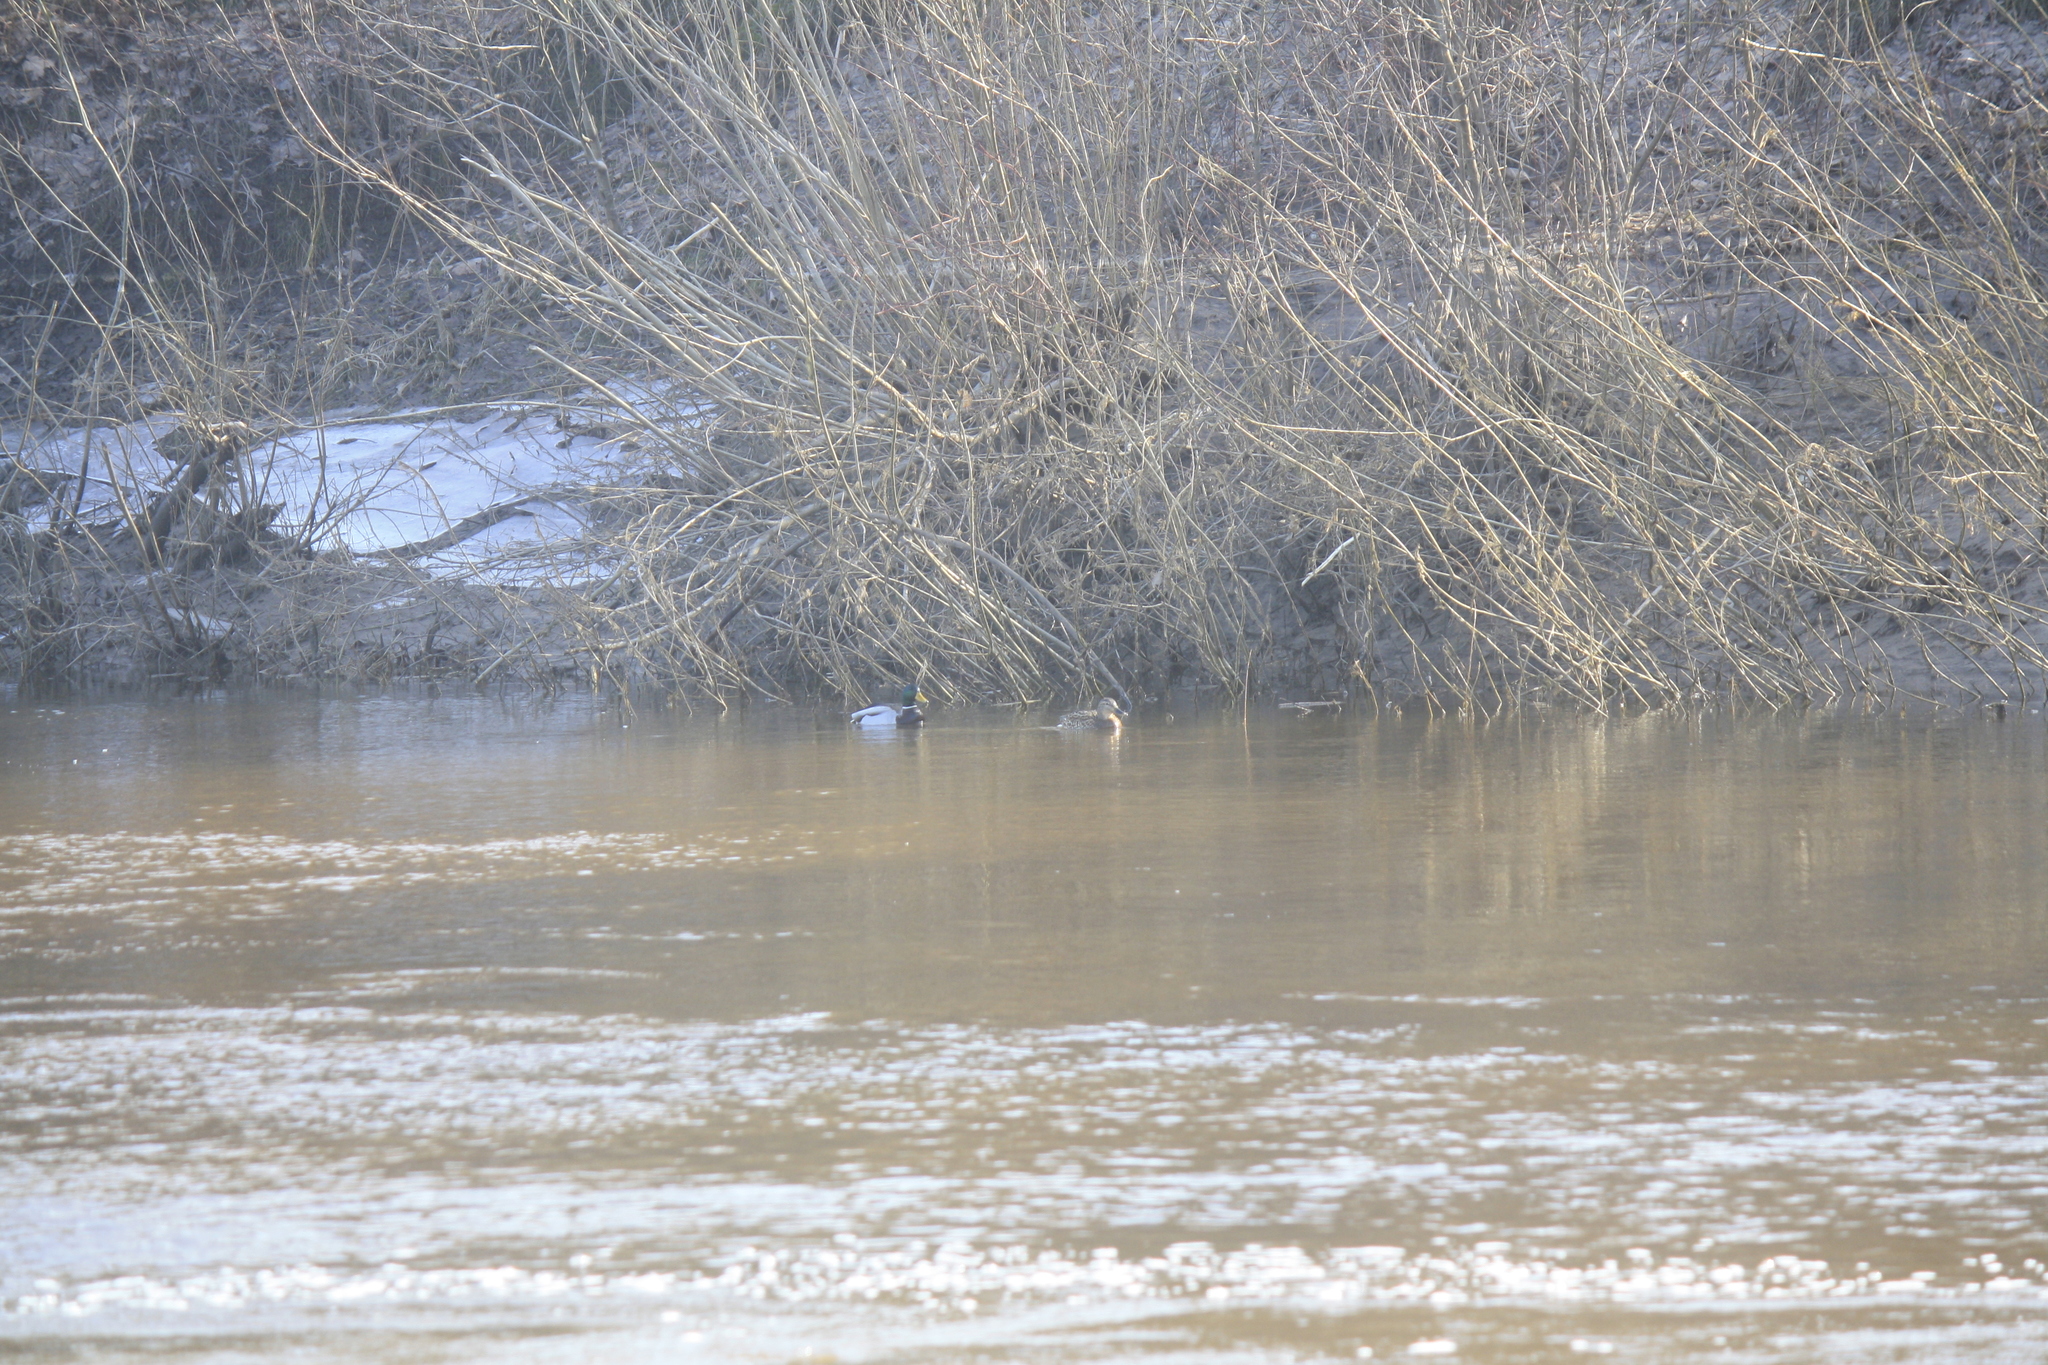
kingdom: Animalia
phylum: Chordata
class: Aves
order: Anseriformes
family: Anatidae
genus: Anas
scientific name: Anas platyrhynchos
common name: Mallard
